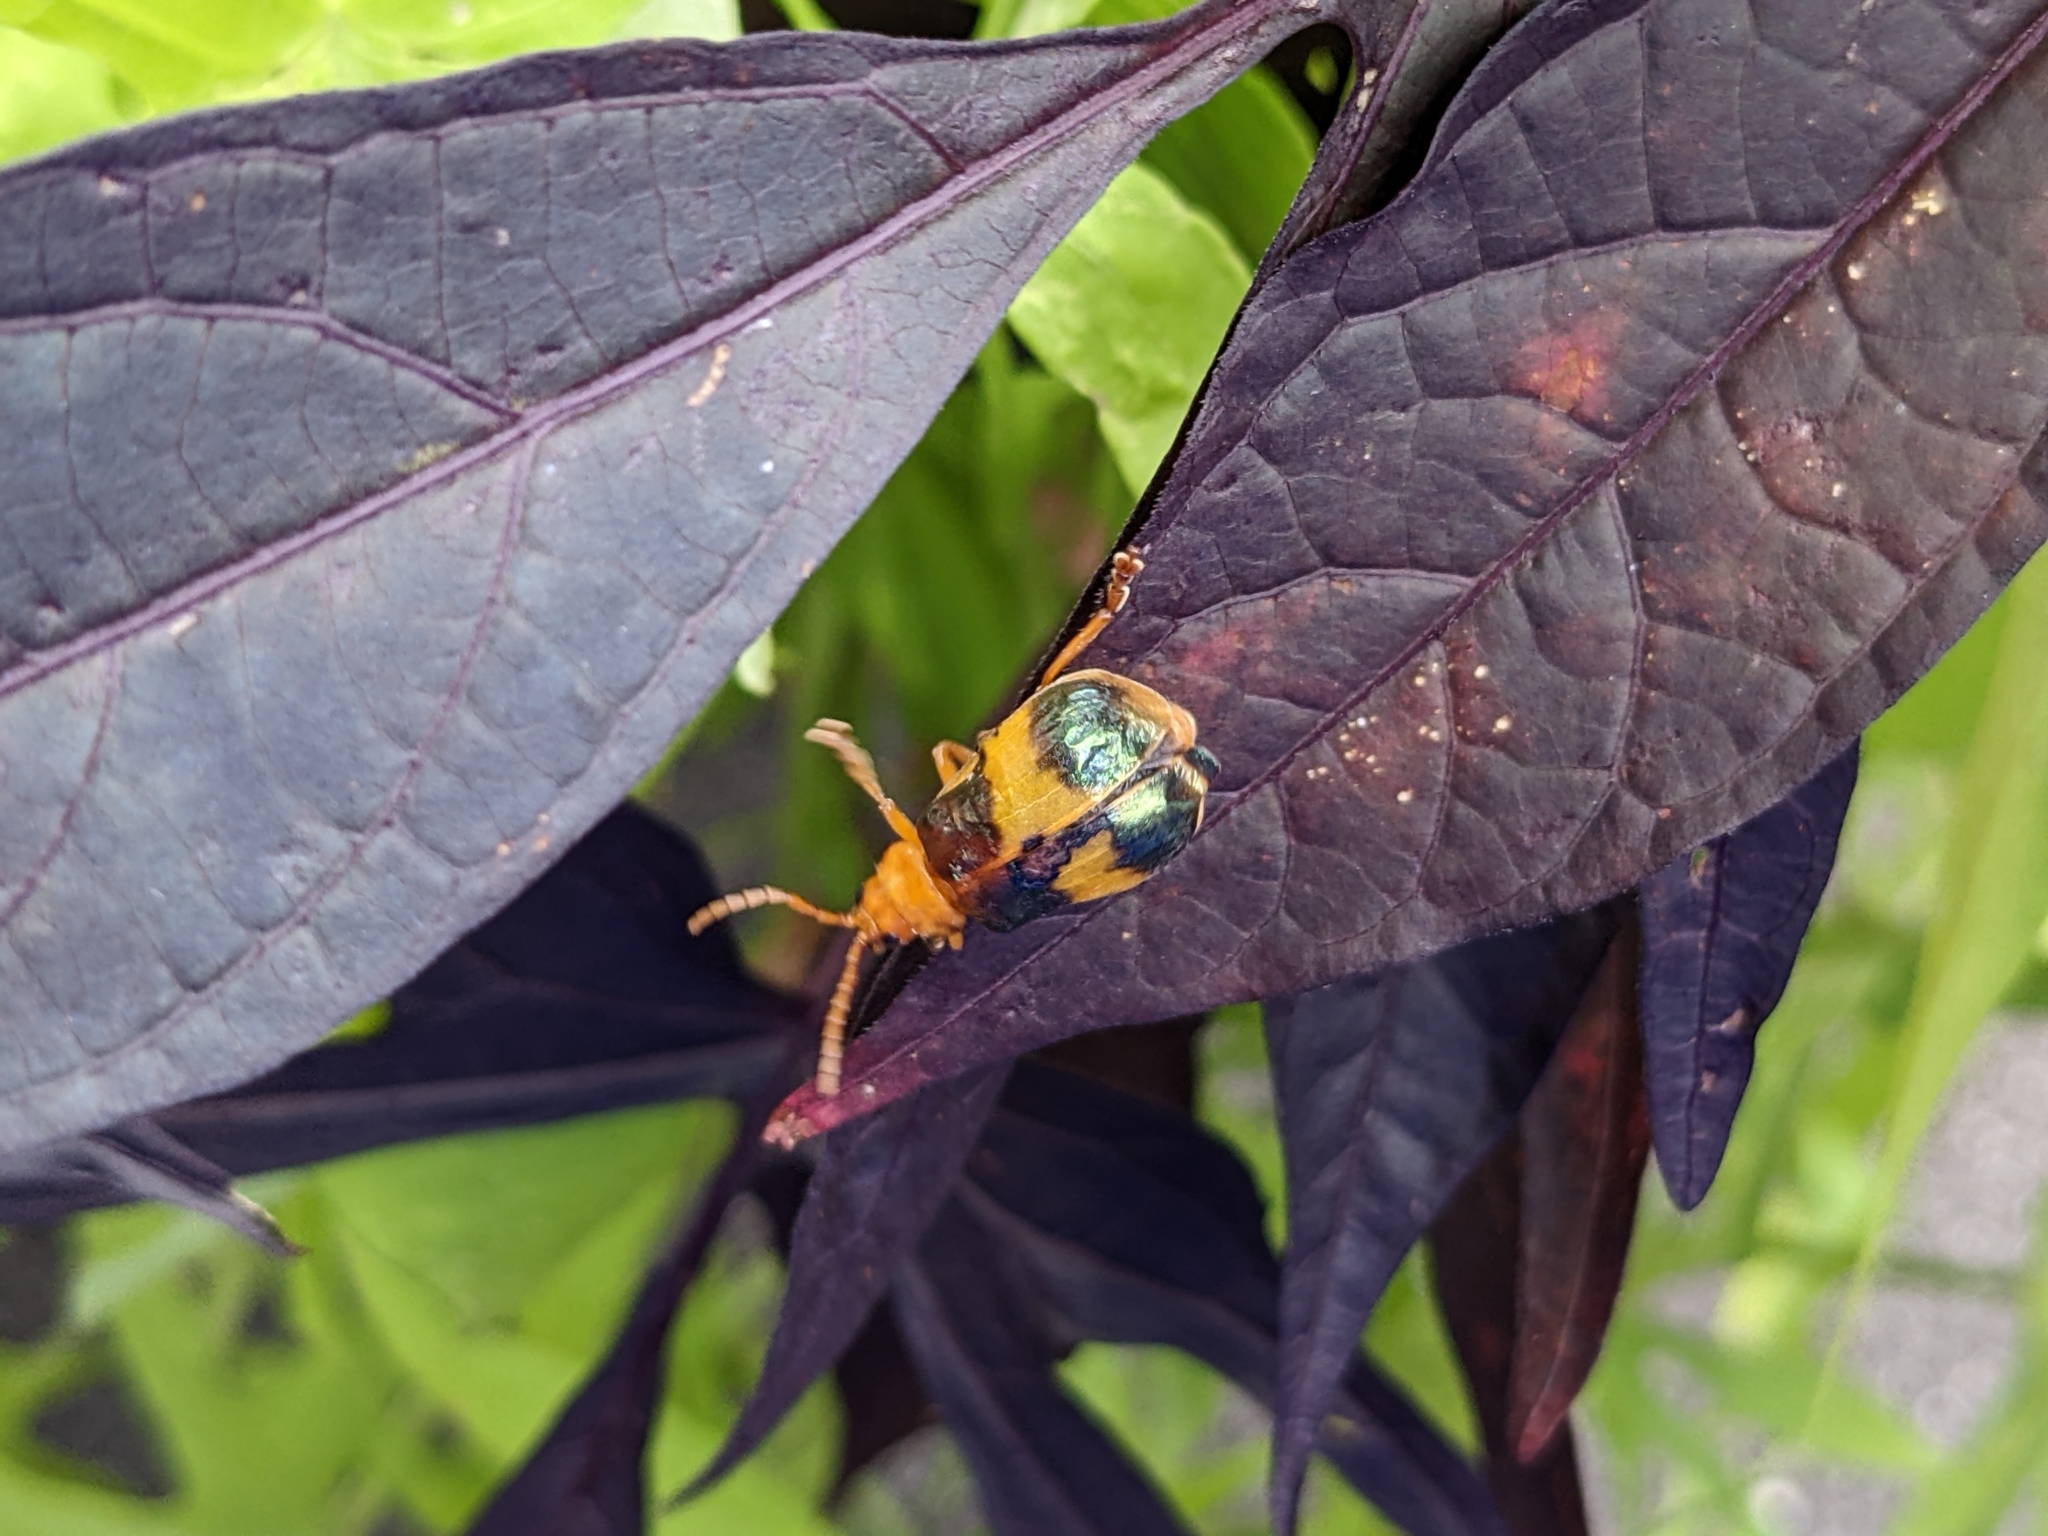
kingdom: Animalia
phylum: Arthropoda
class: Insecta
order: Coleoptera
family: Chrysomelidae
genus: Monocesta
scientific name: Monocesta coryli
